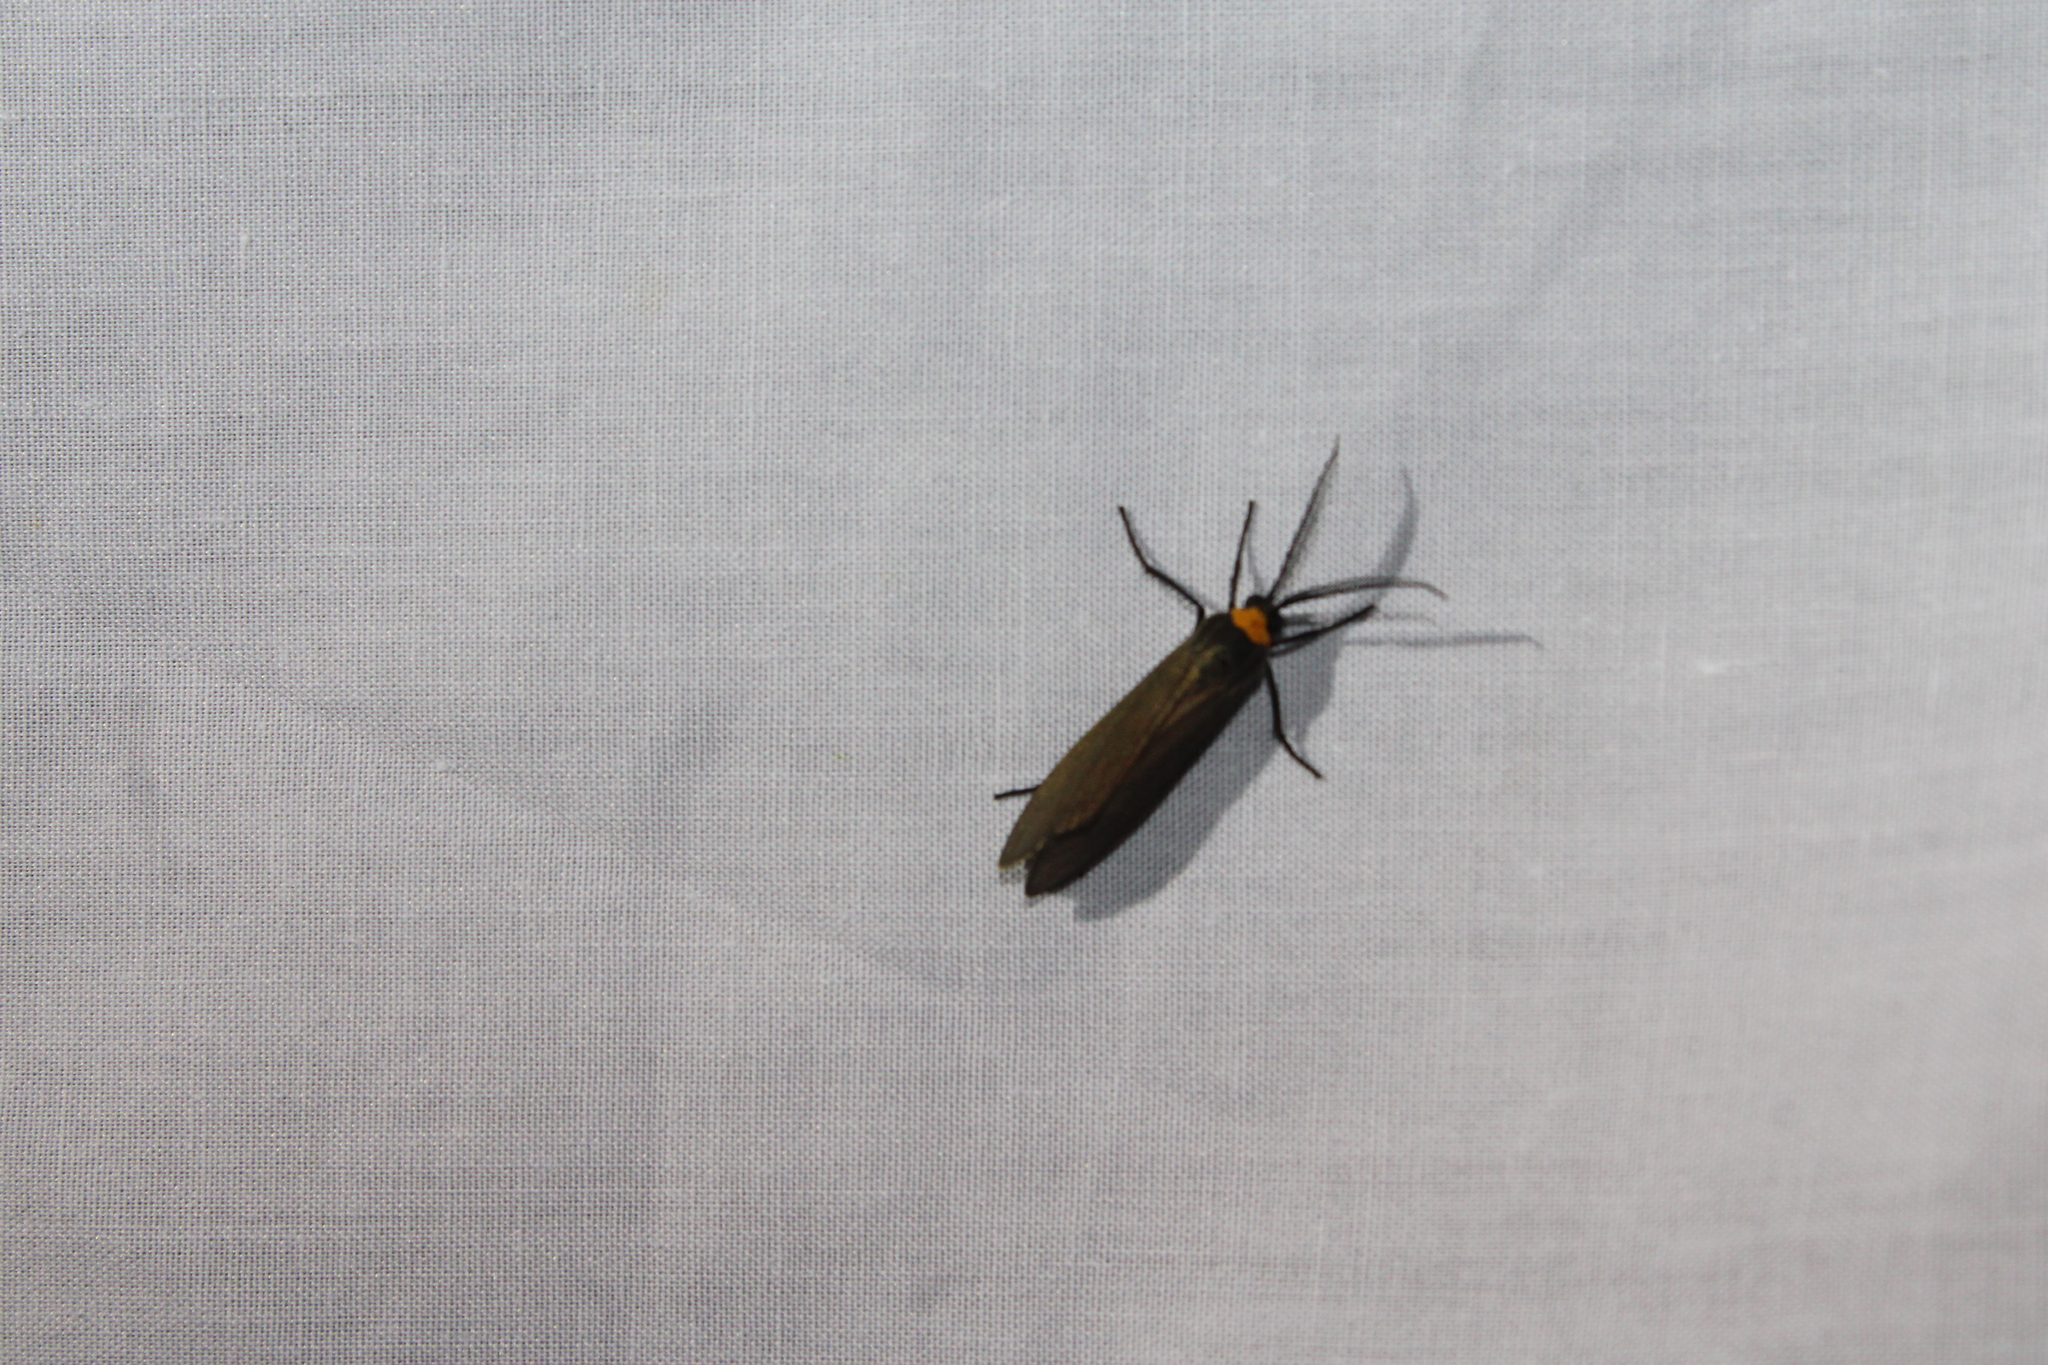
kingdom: Animalia
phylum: Arthropoda
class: Insecta
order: Lepidoptera
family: Erebidae
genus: Cisseps
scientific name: Cisseps fulvicollis
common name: Yellow-collared scape moth
